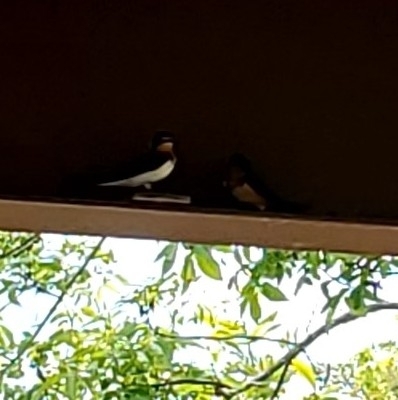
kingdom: Animalia
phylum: Chordata
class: Aves
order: Passeriformes
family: Hirundinidae
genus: Hirundo
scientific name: Hirundo rustica
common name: Barn swallow
